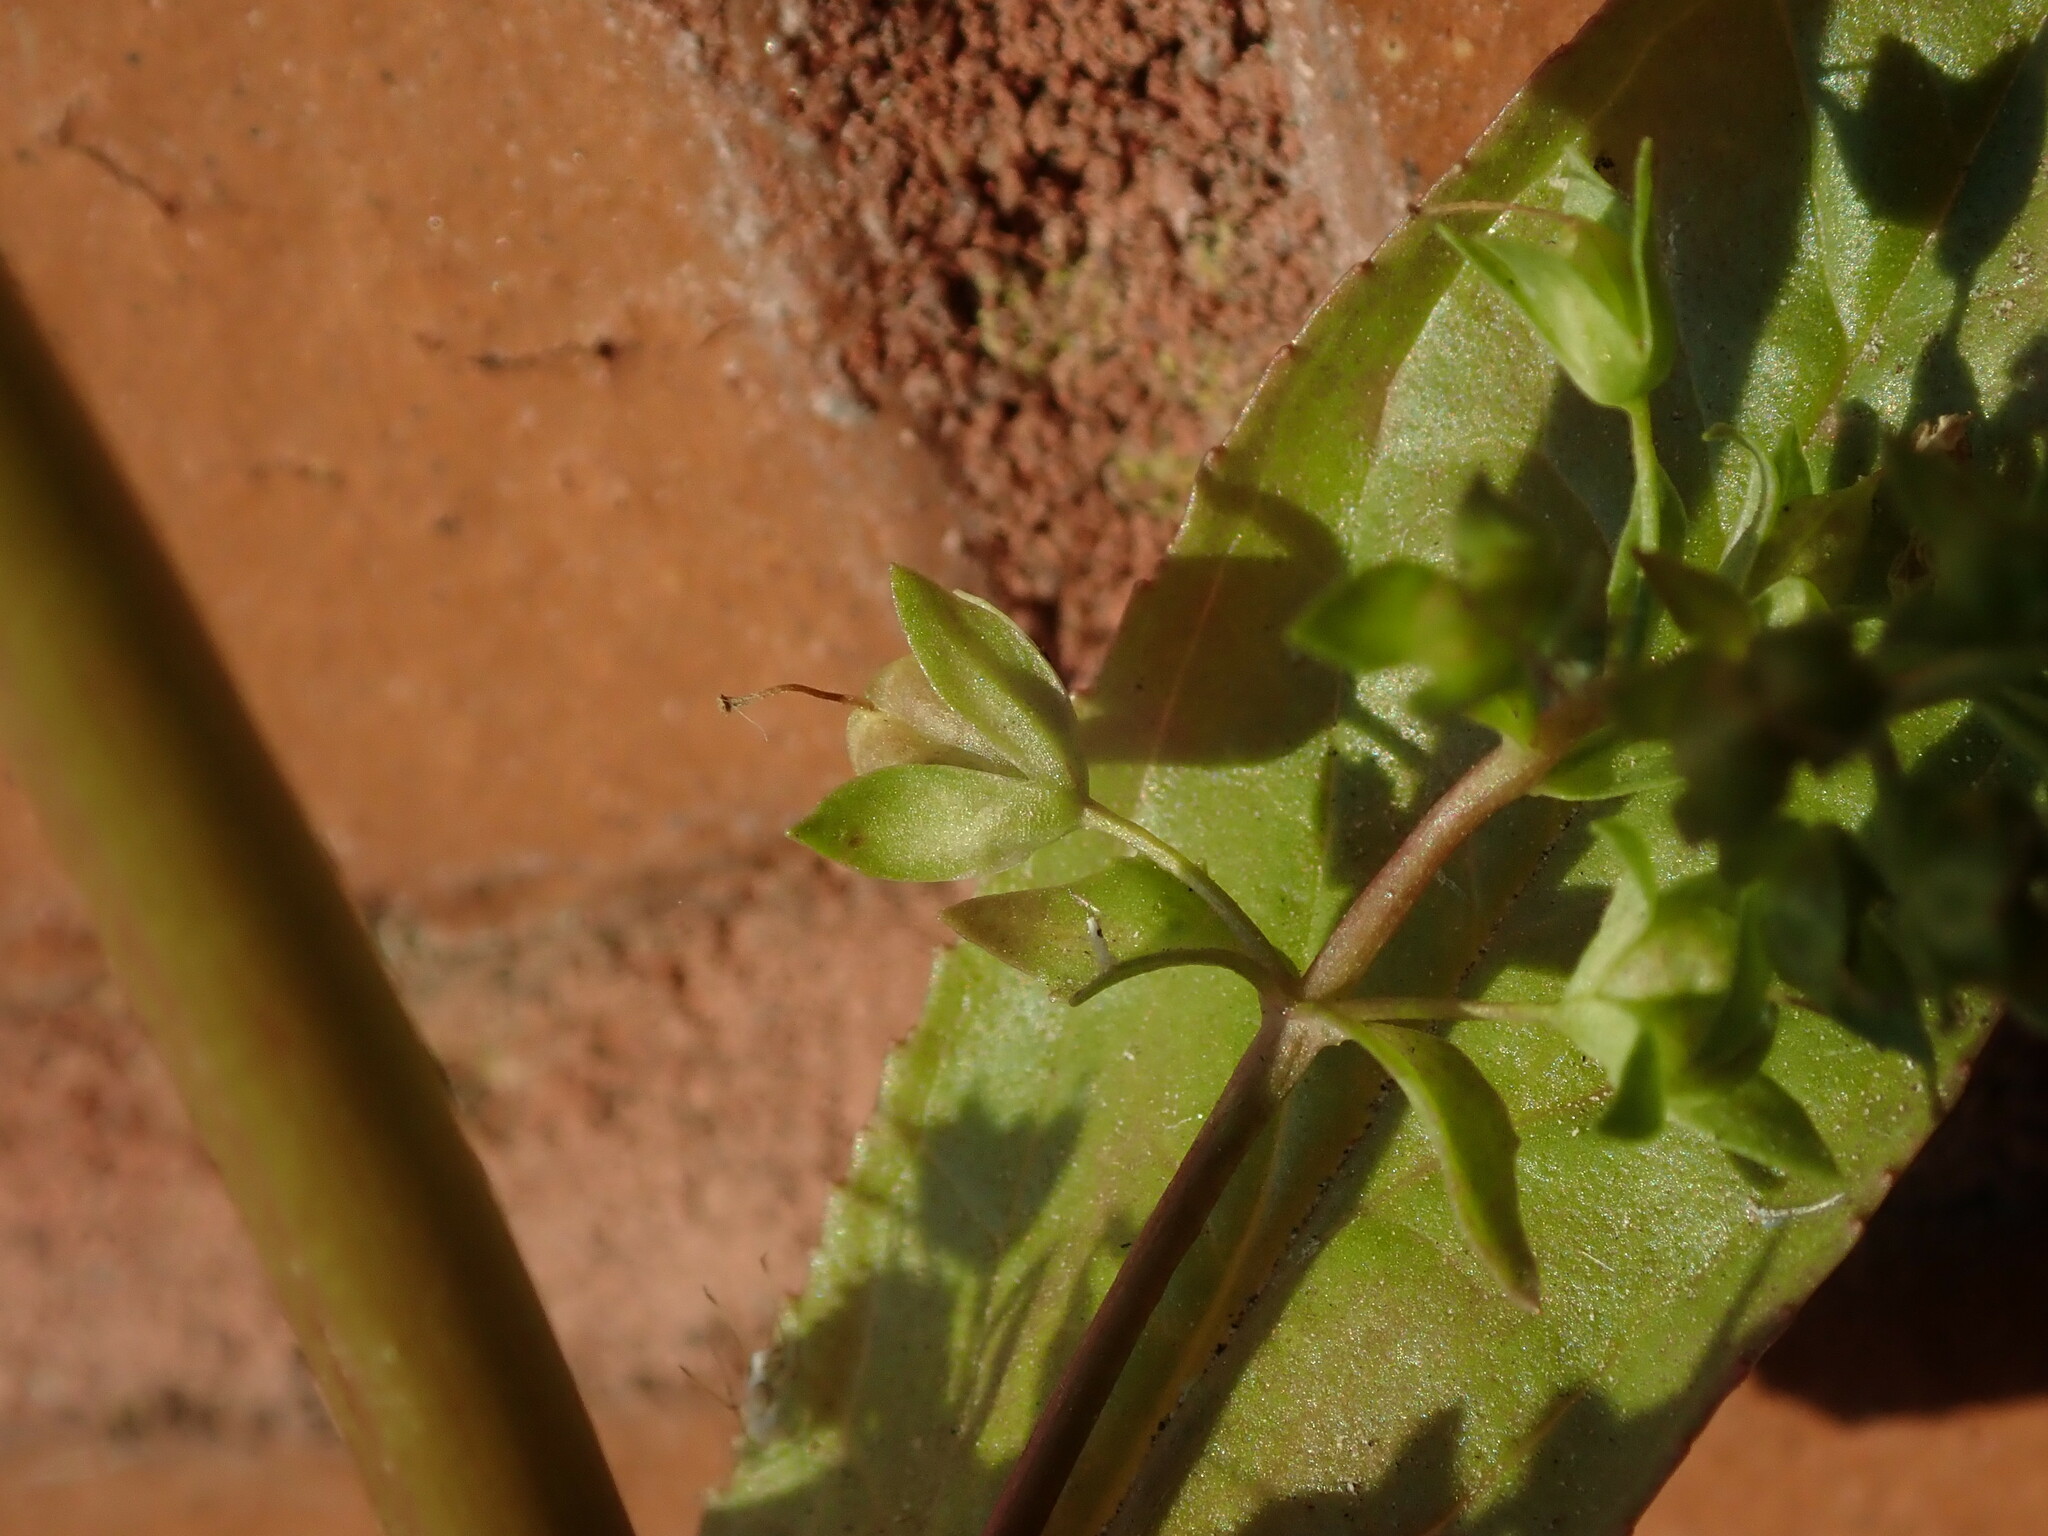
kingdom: Plantae
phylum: Tracheophyta
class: Magnoliopsida
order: Lamiales
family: Plantaginaceae
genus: Veronica
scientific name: Veronica anagallis-aquatica
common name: Water speedwell
